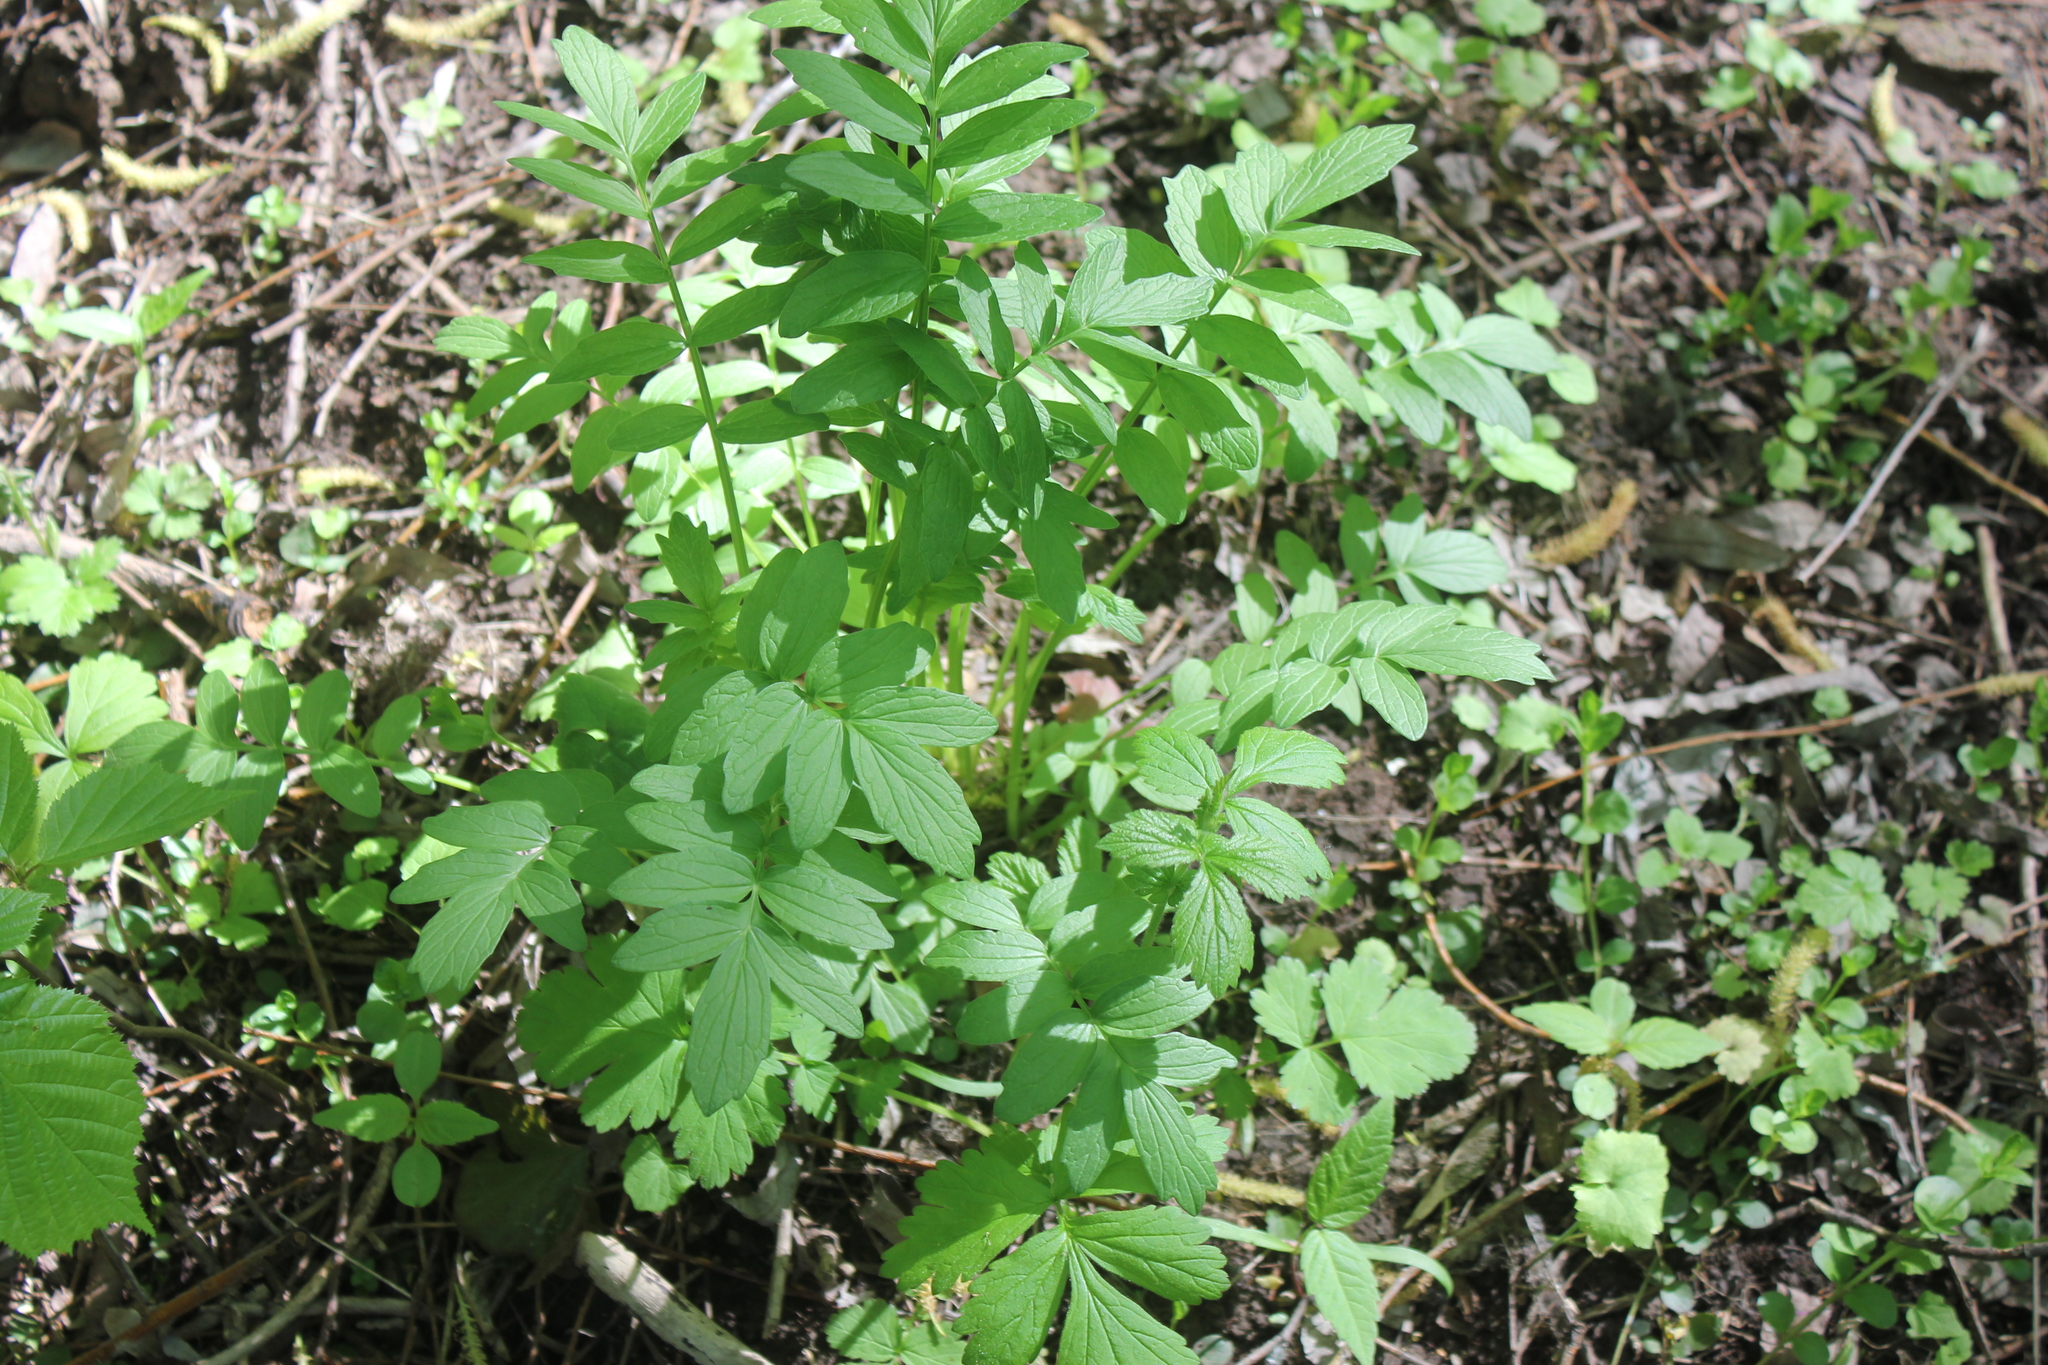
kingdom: Plantae
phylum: Tracheophyta
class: Magnoliopsida
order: Dipsacales
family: Caprifoliaceae
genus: Valeriana
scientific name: Valeriana officinalis
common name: Common valerian
